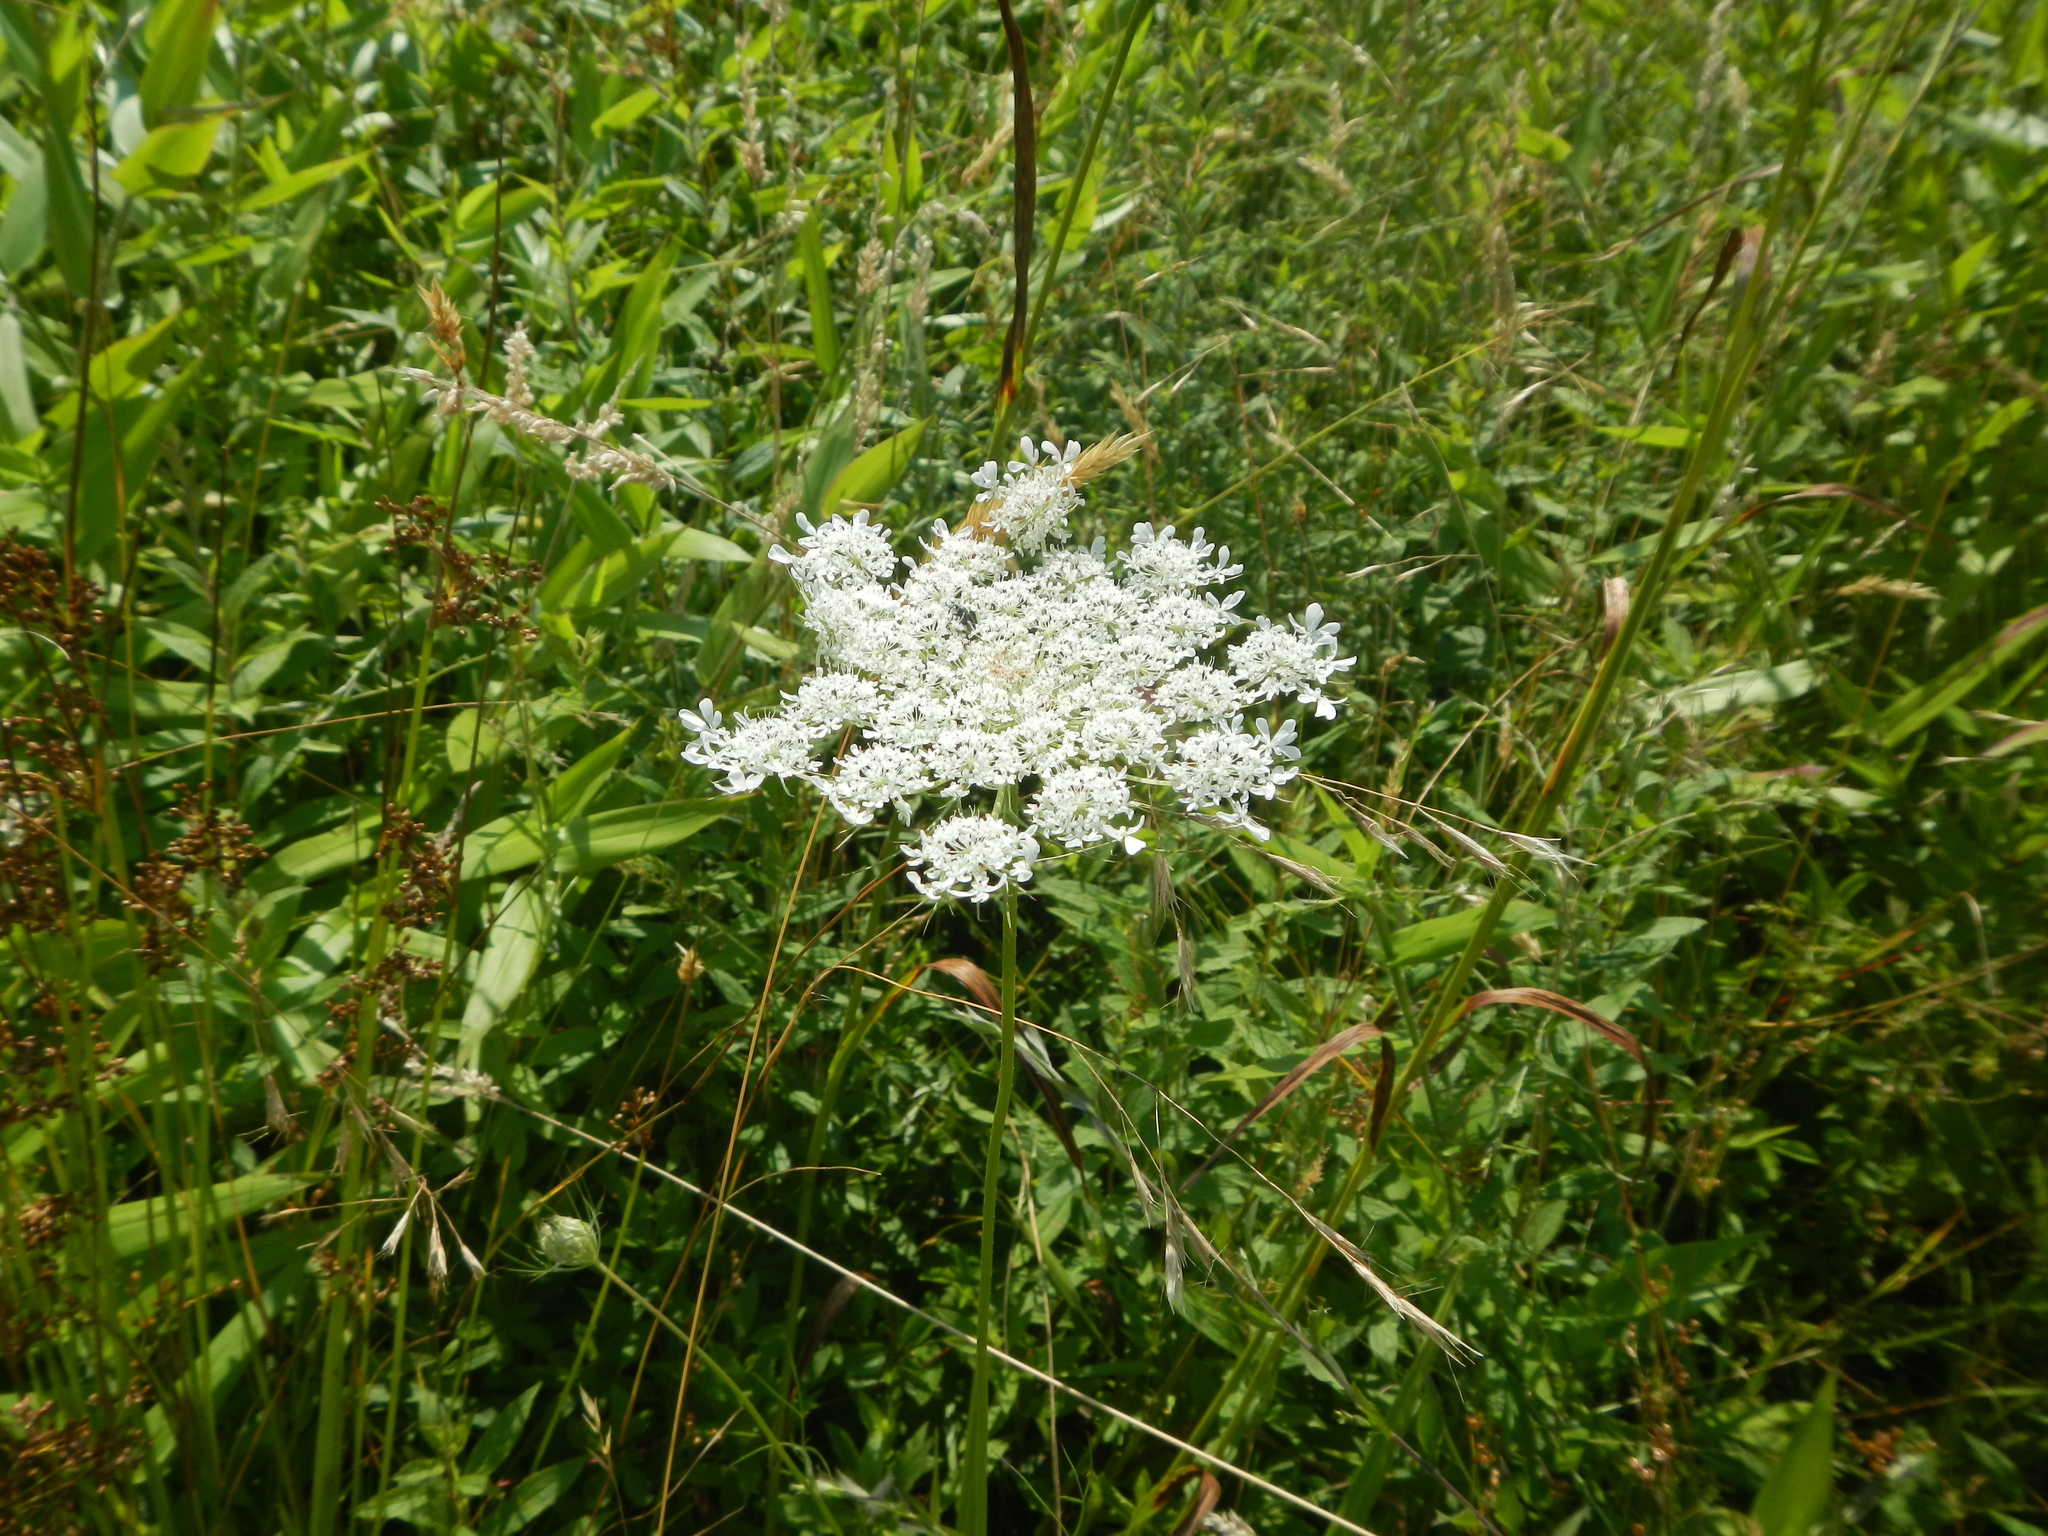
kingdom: Plantae
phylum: Tracheophyta
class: Magnoliopsida
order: Apiales
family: Apiaceae
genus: Daucus
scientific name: Daucus carota
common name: Wild carrot
